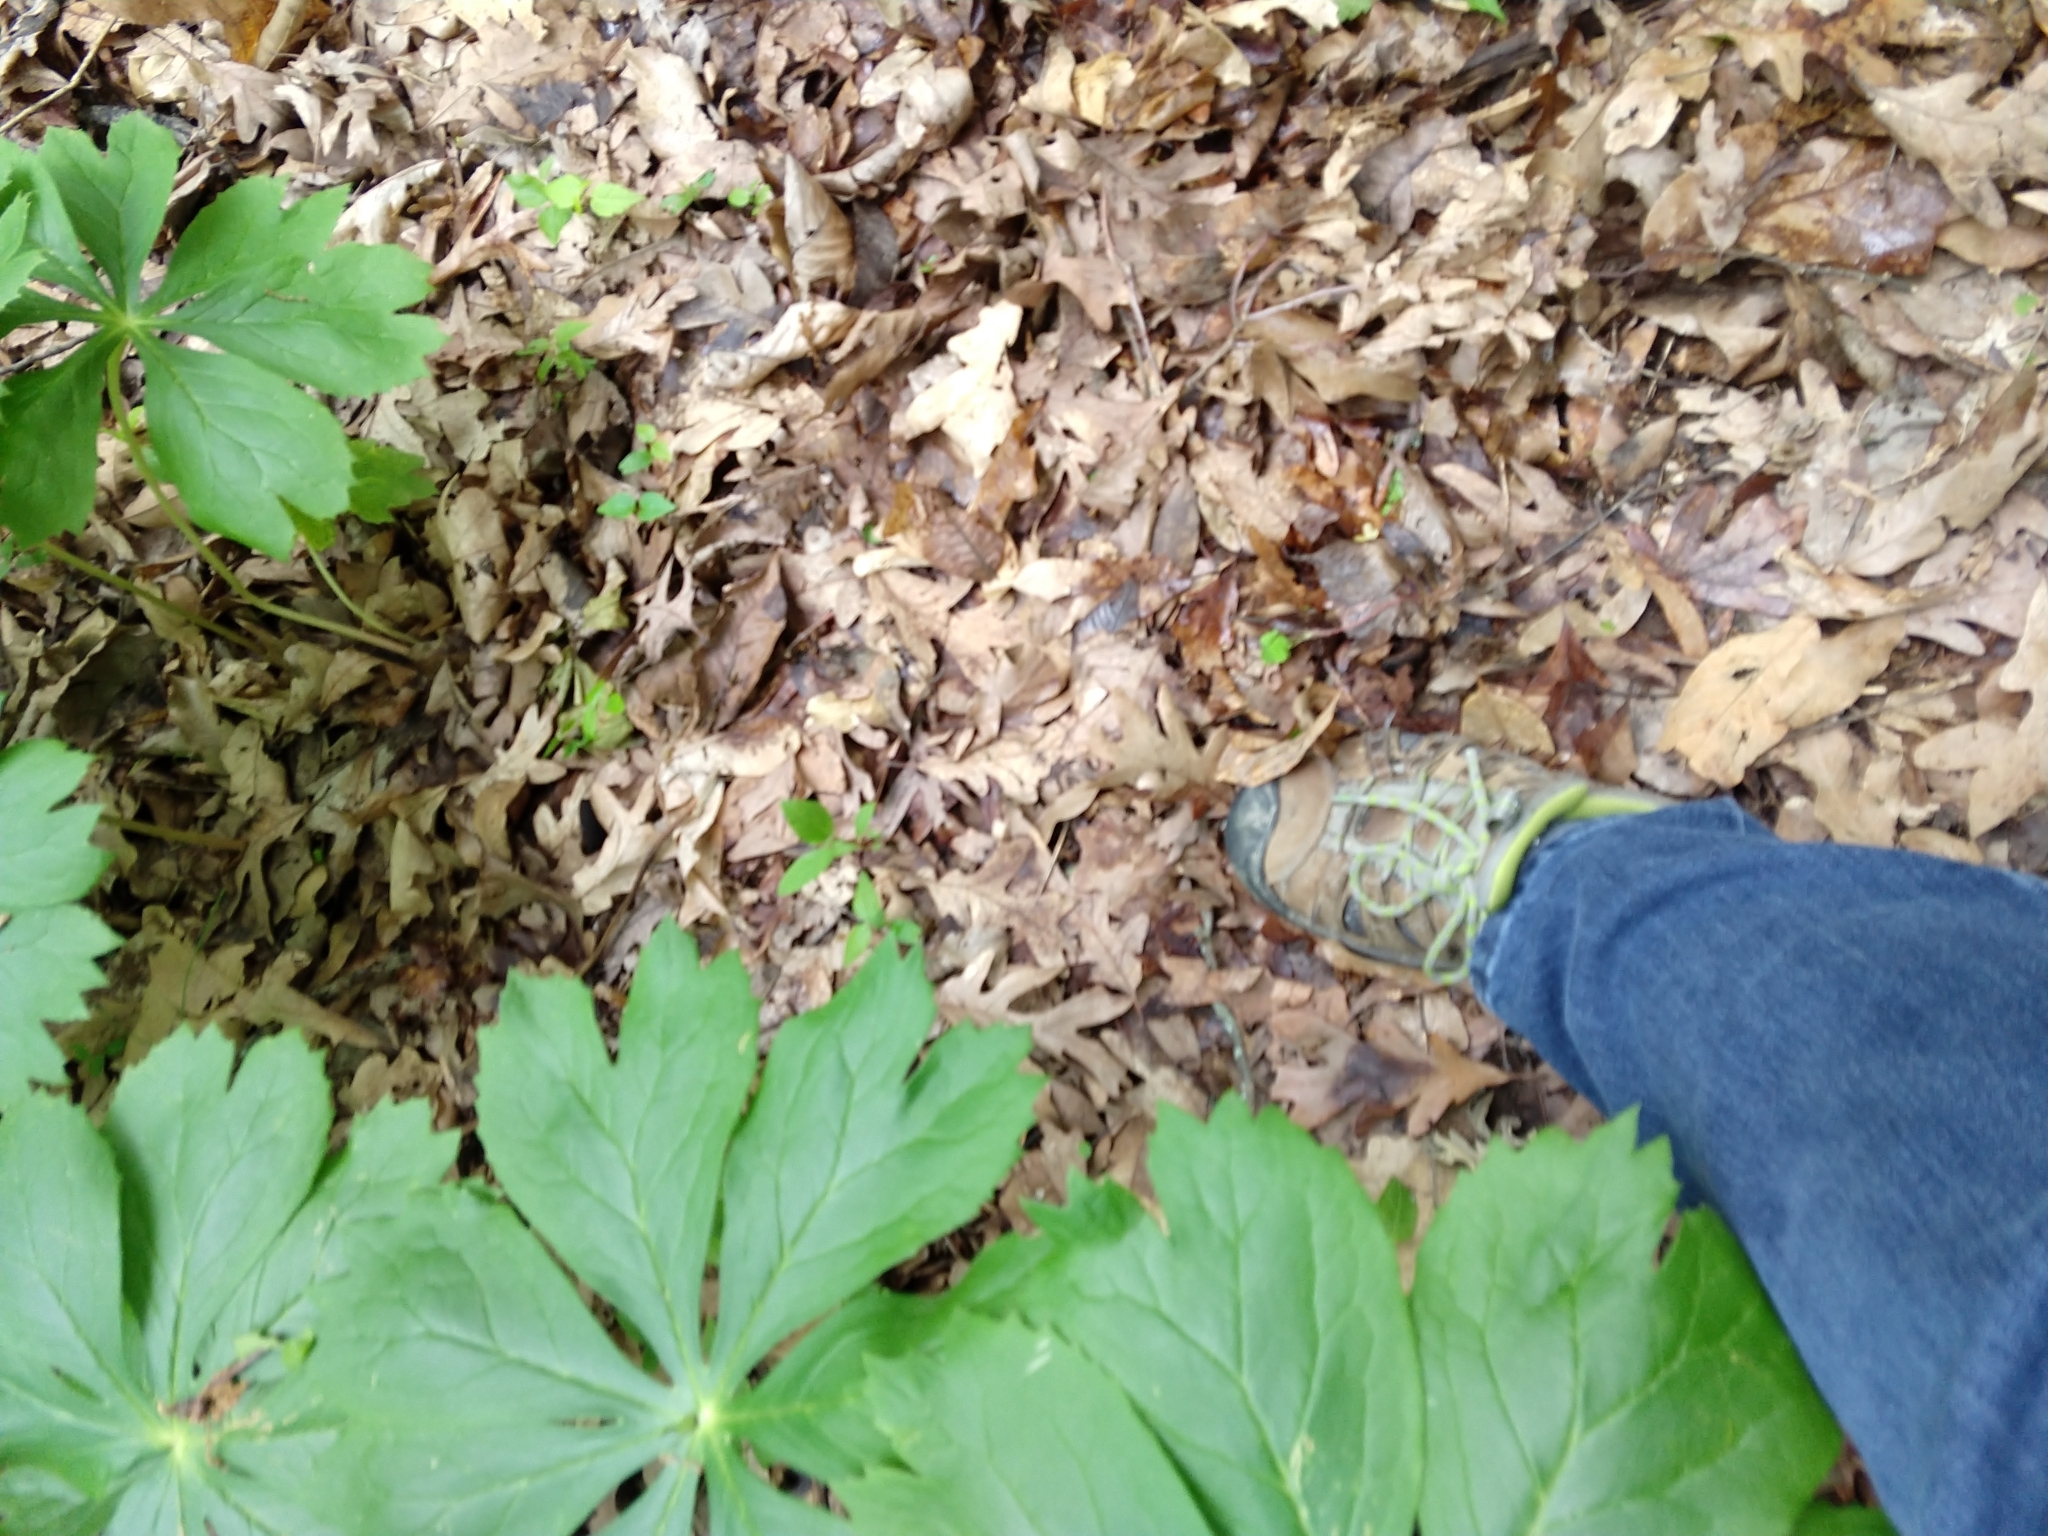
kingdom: Plantae
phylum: Tracheophyta
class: Magnoliopsida
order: Ranunculales
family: Berberidaceae
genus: Podophyllum
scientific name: Podophyllum peltatum
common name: Wild mandrake
